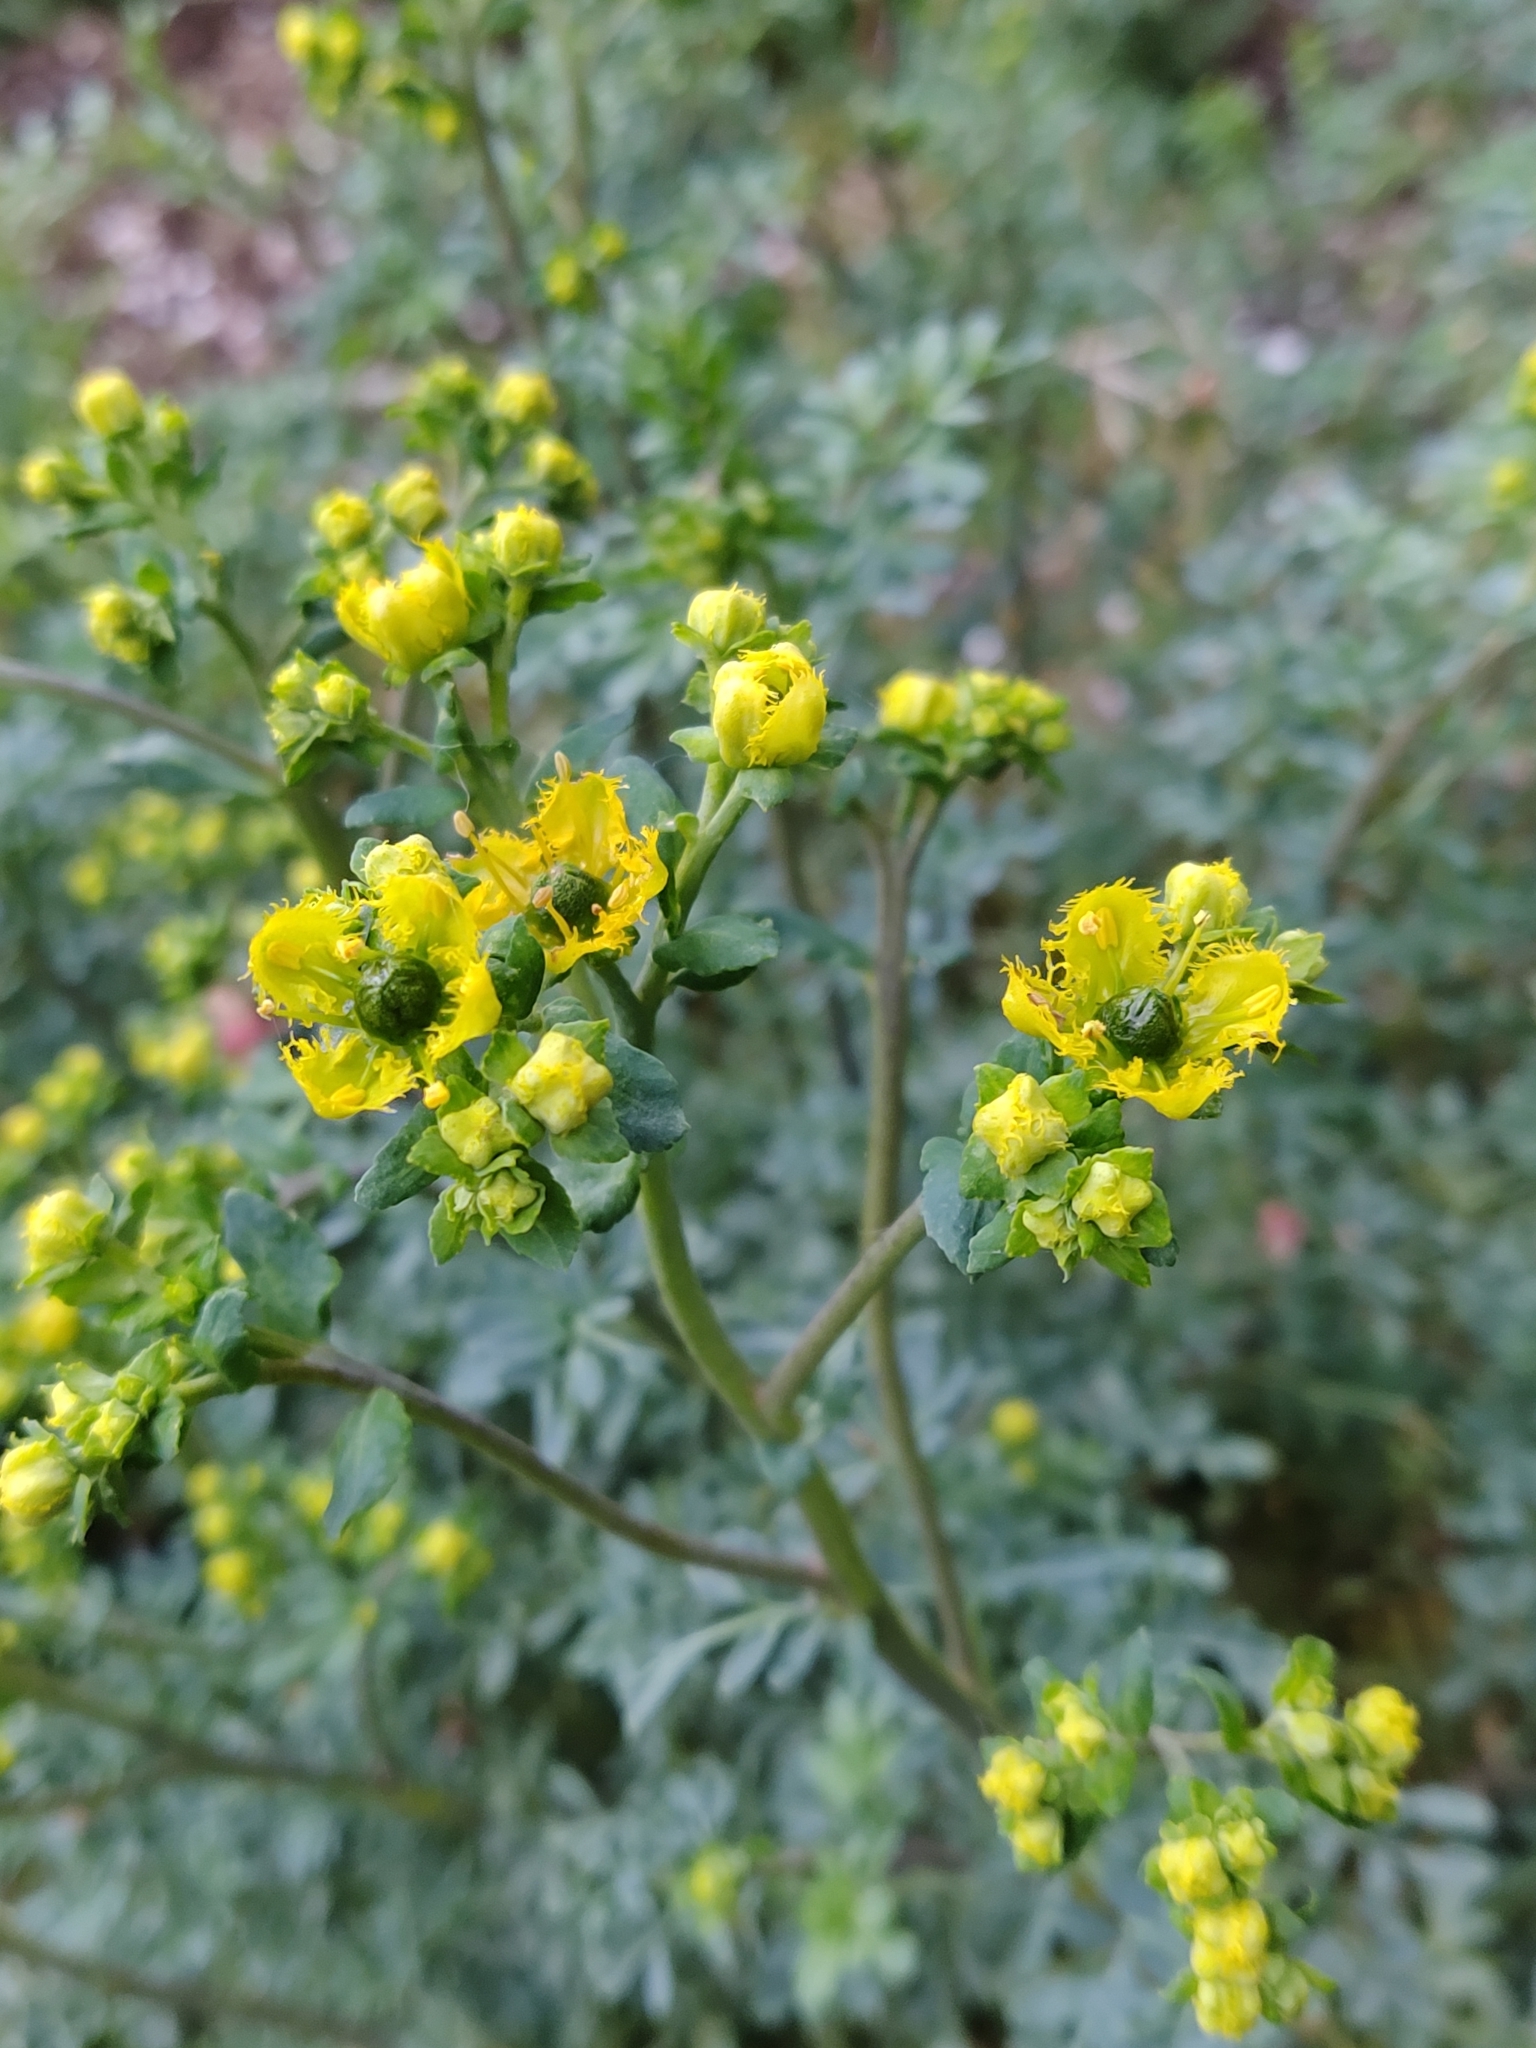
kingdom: Plantae
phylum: Tracheophyta
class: Magnoliopsida
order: Sapindales
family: Rutaceae
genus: Ruta
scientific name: Ruta chalepensis
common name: Fringed rue
